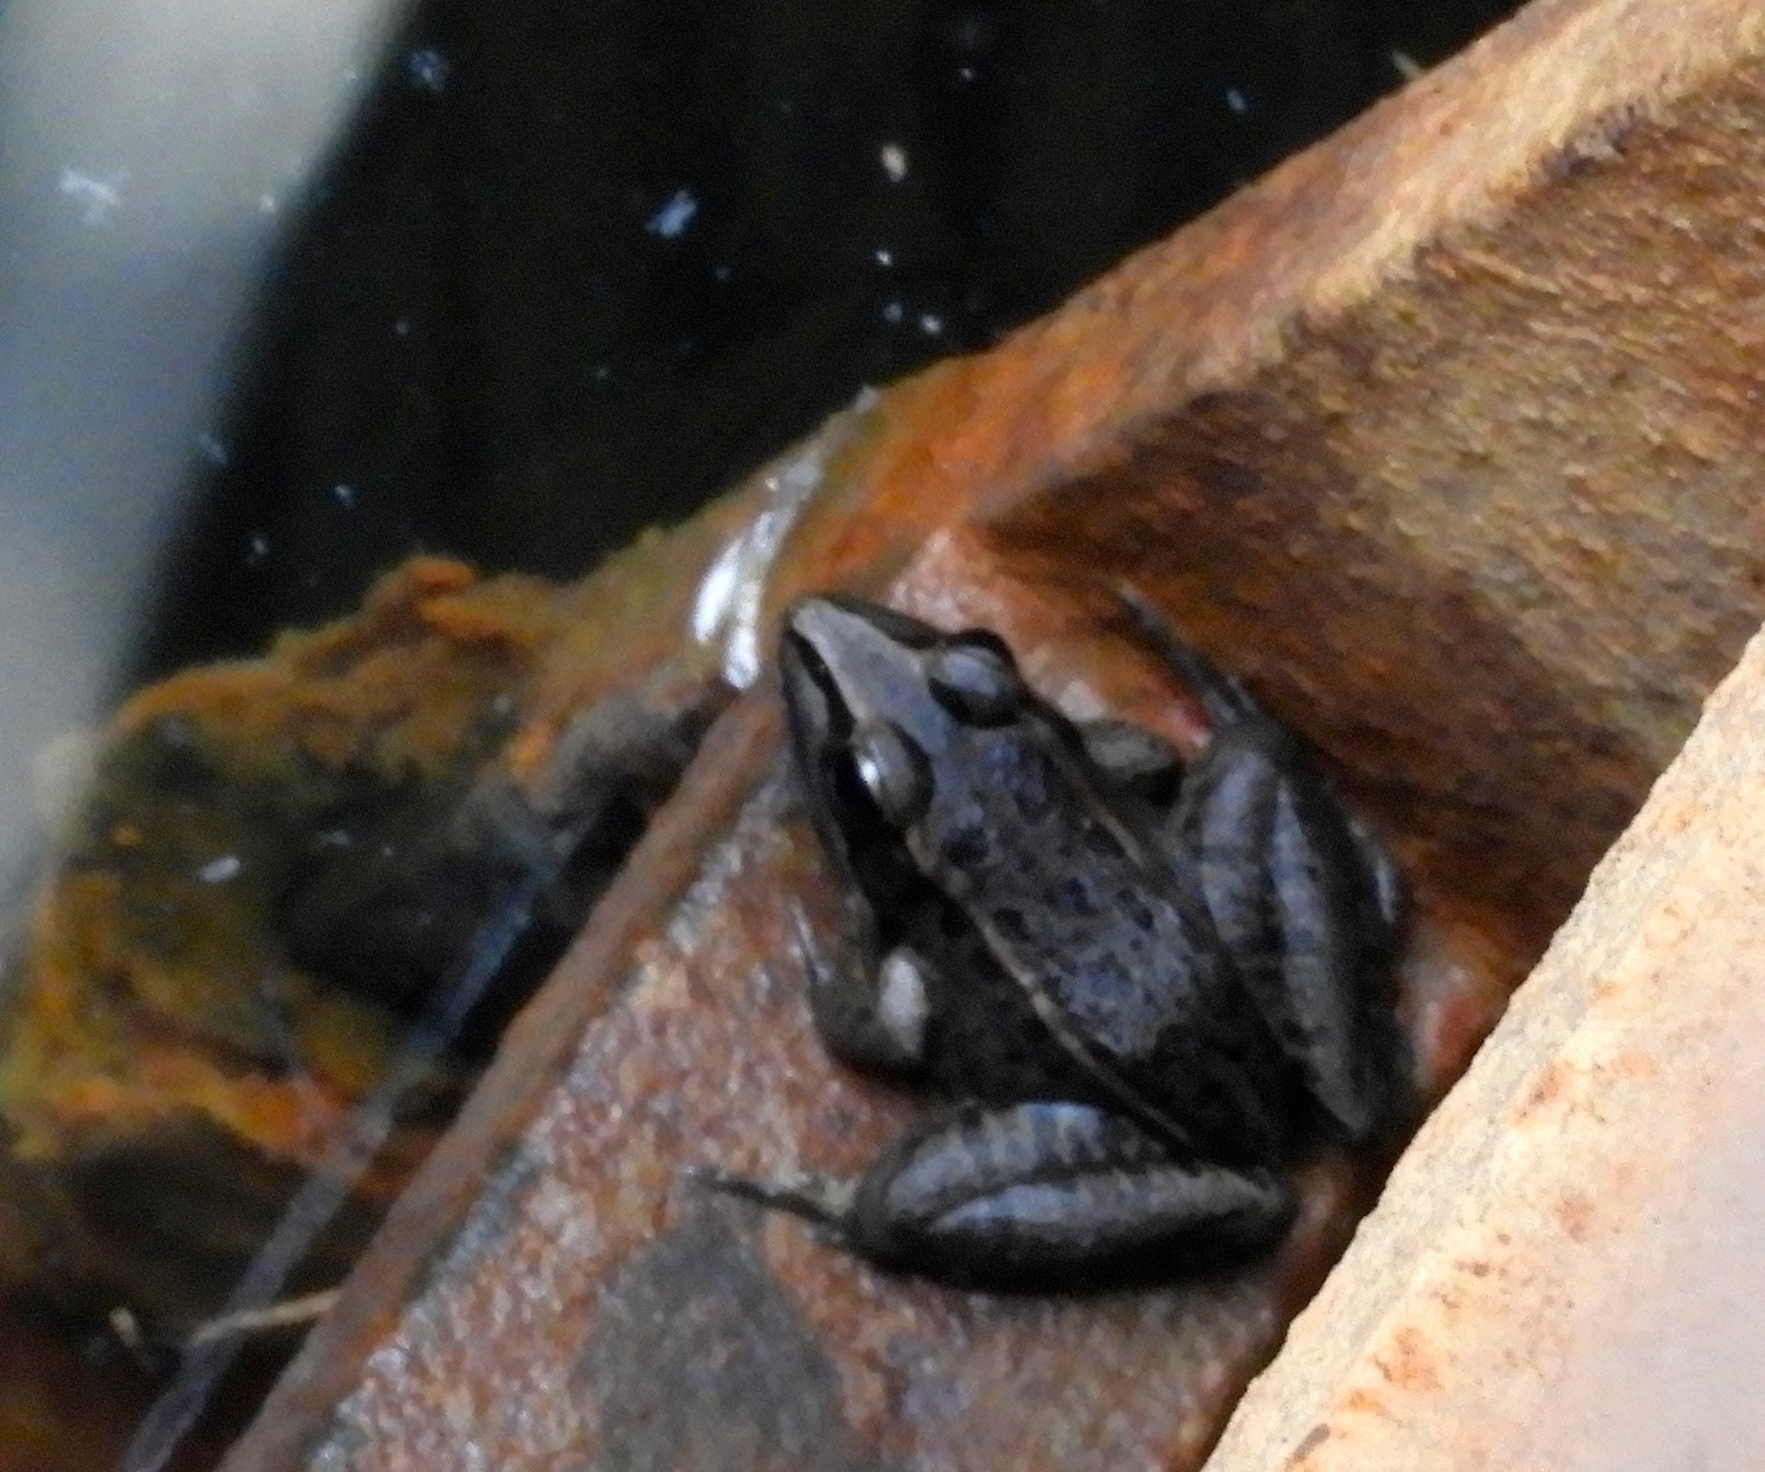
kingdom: Animalia
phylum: Chordata
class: Amphibia
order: Anura
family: Ranidae
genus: Lithobates
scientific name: Lithobates
